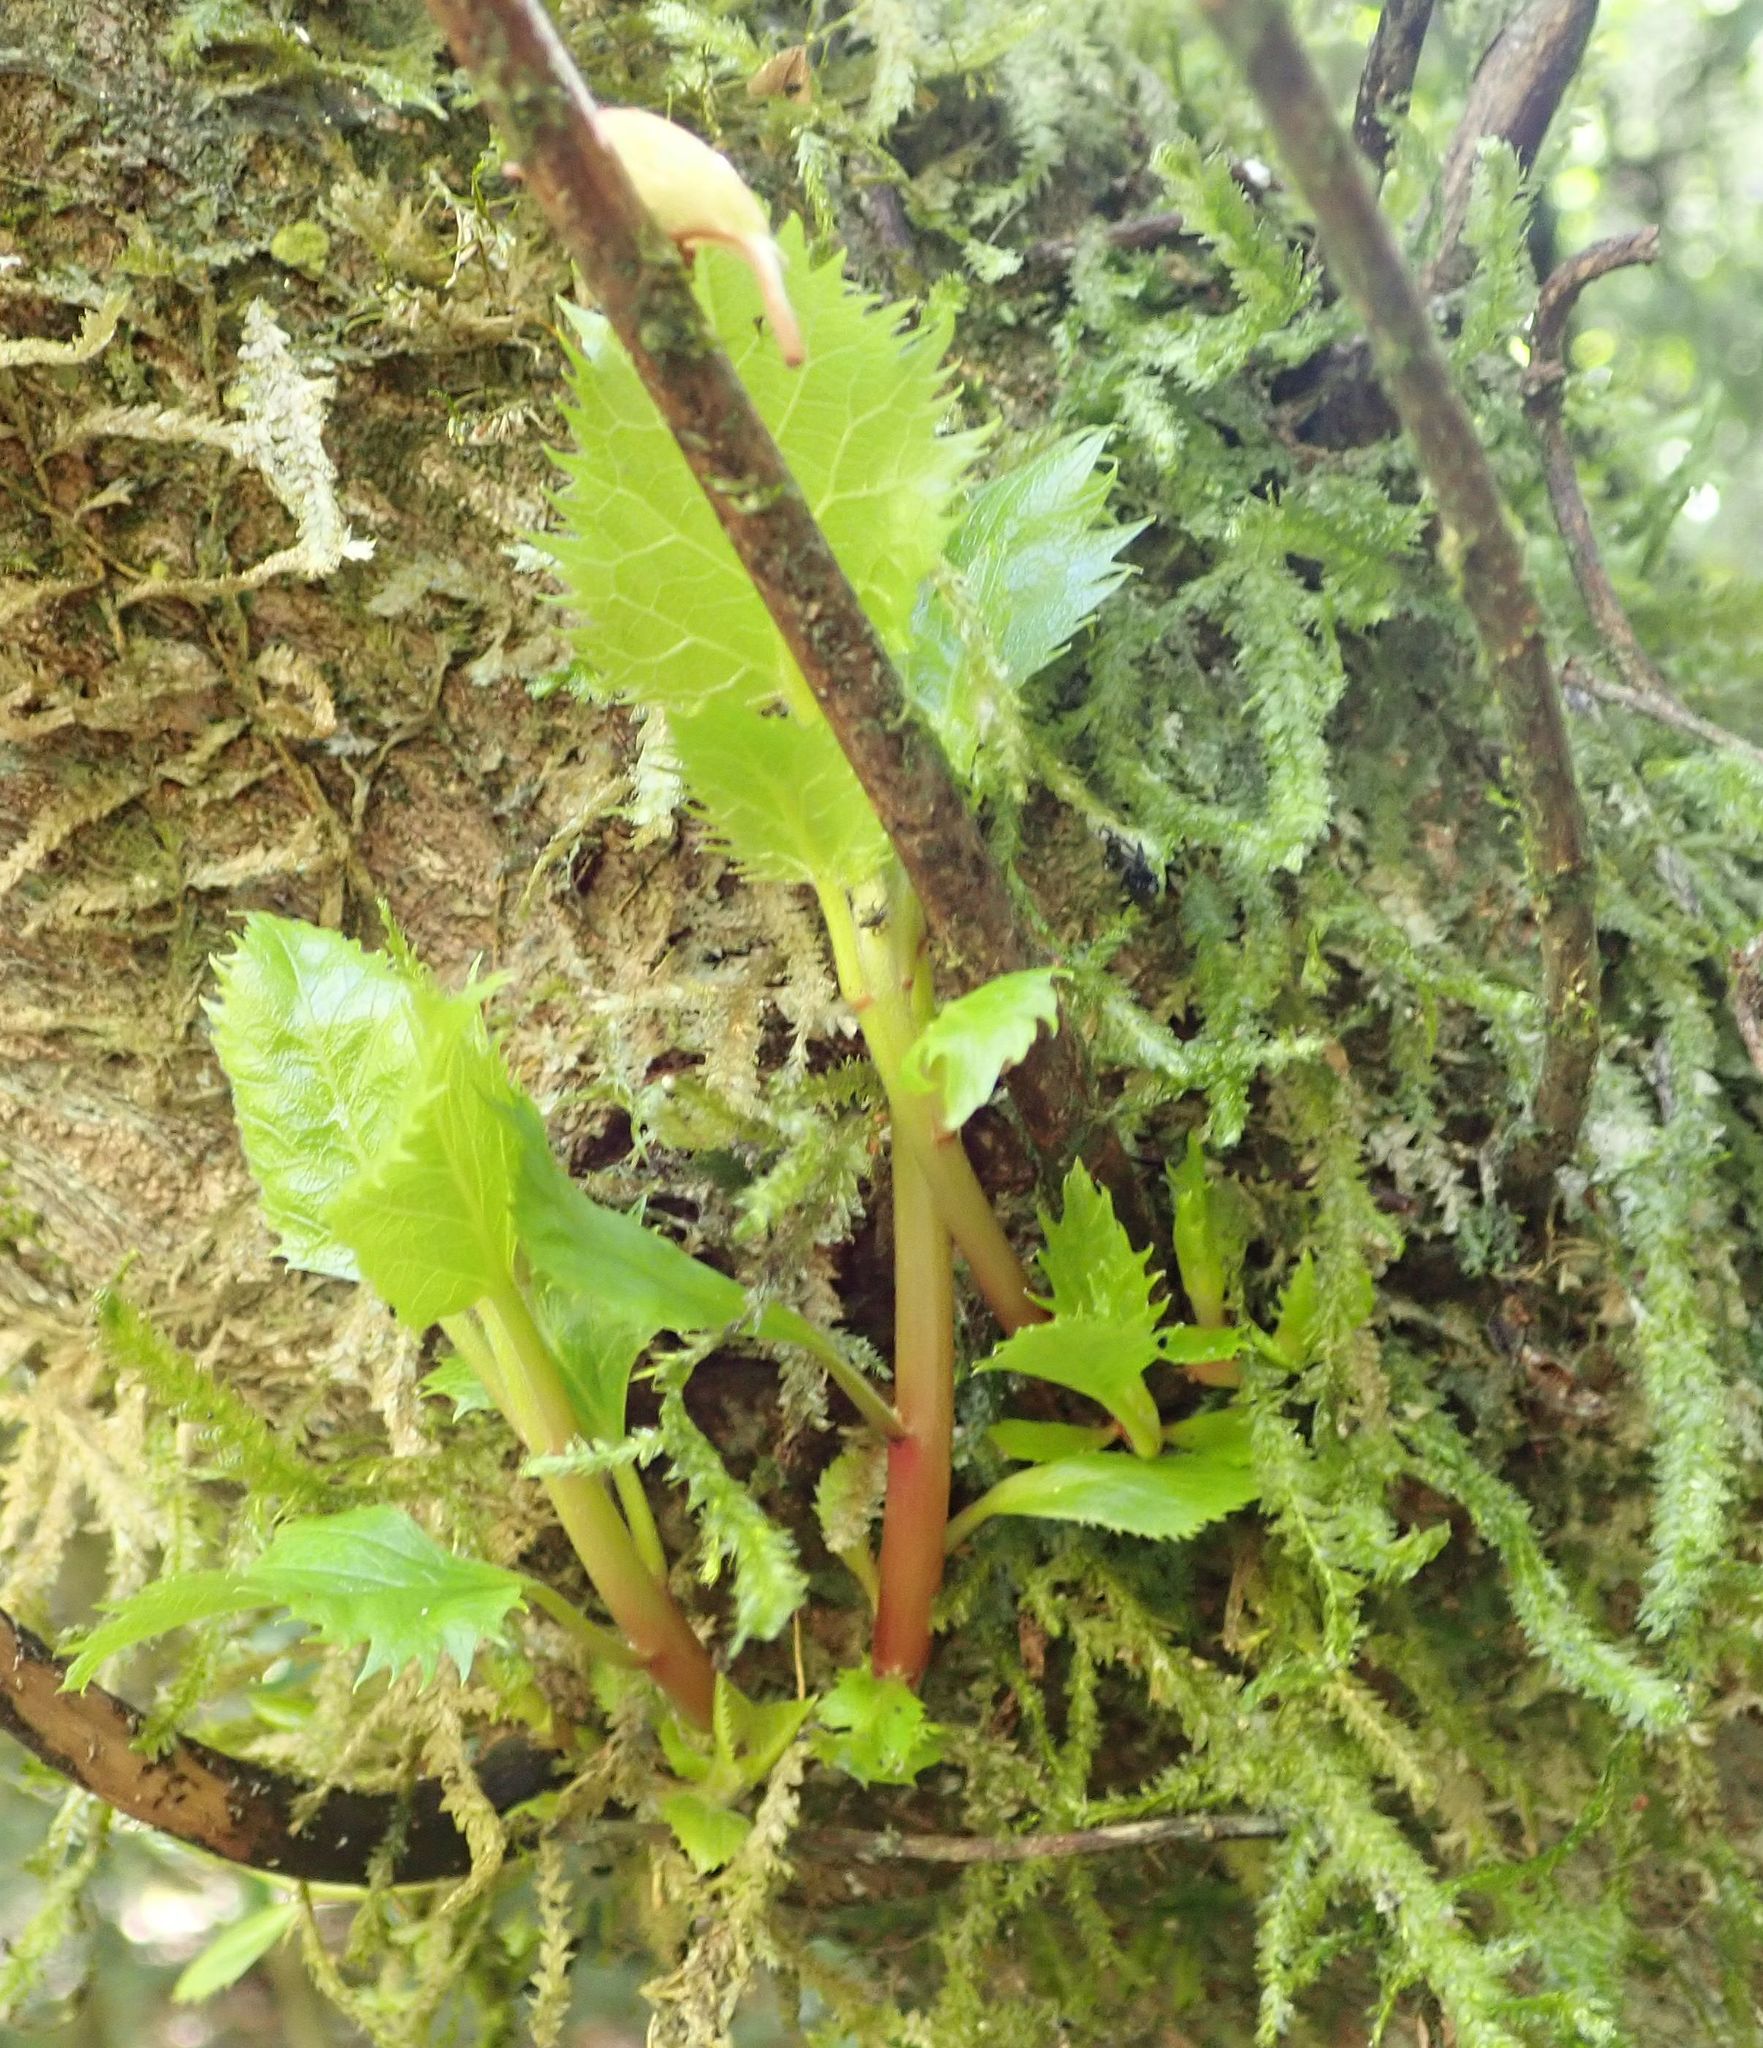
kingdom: Plantae
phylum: Tracheophyta
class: Magnoliopsida
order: Oxalidales
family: Elaeocarpaceae
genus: Aristotelia
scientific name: Aristotelia serrata
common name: New zealand wineberry
